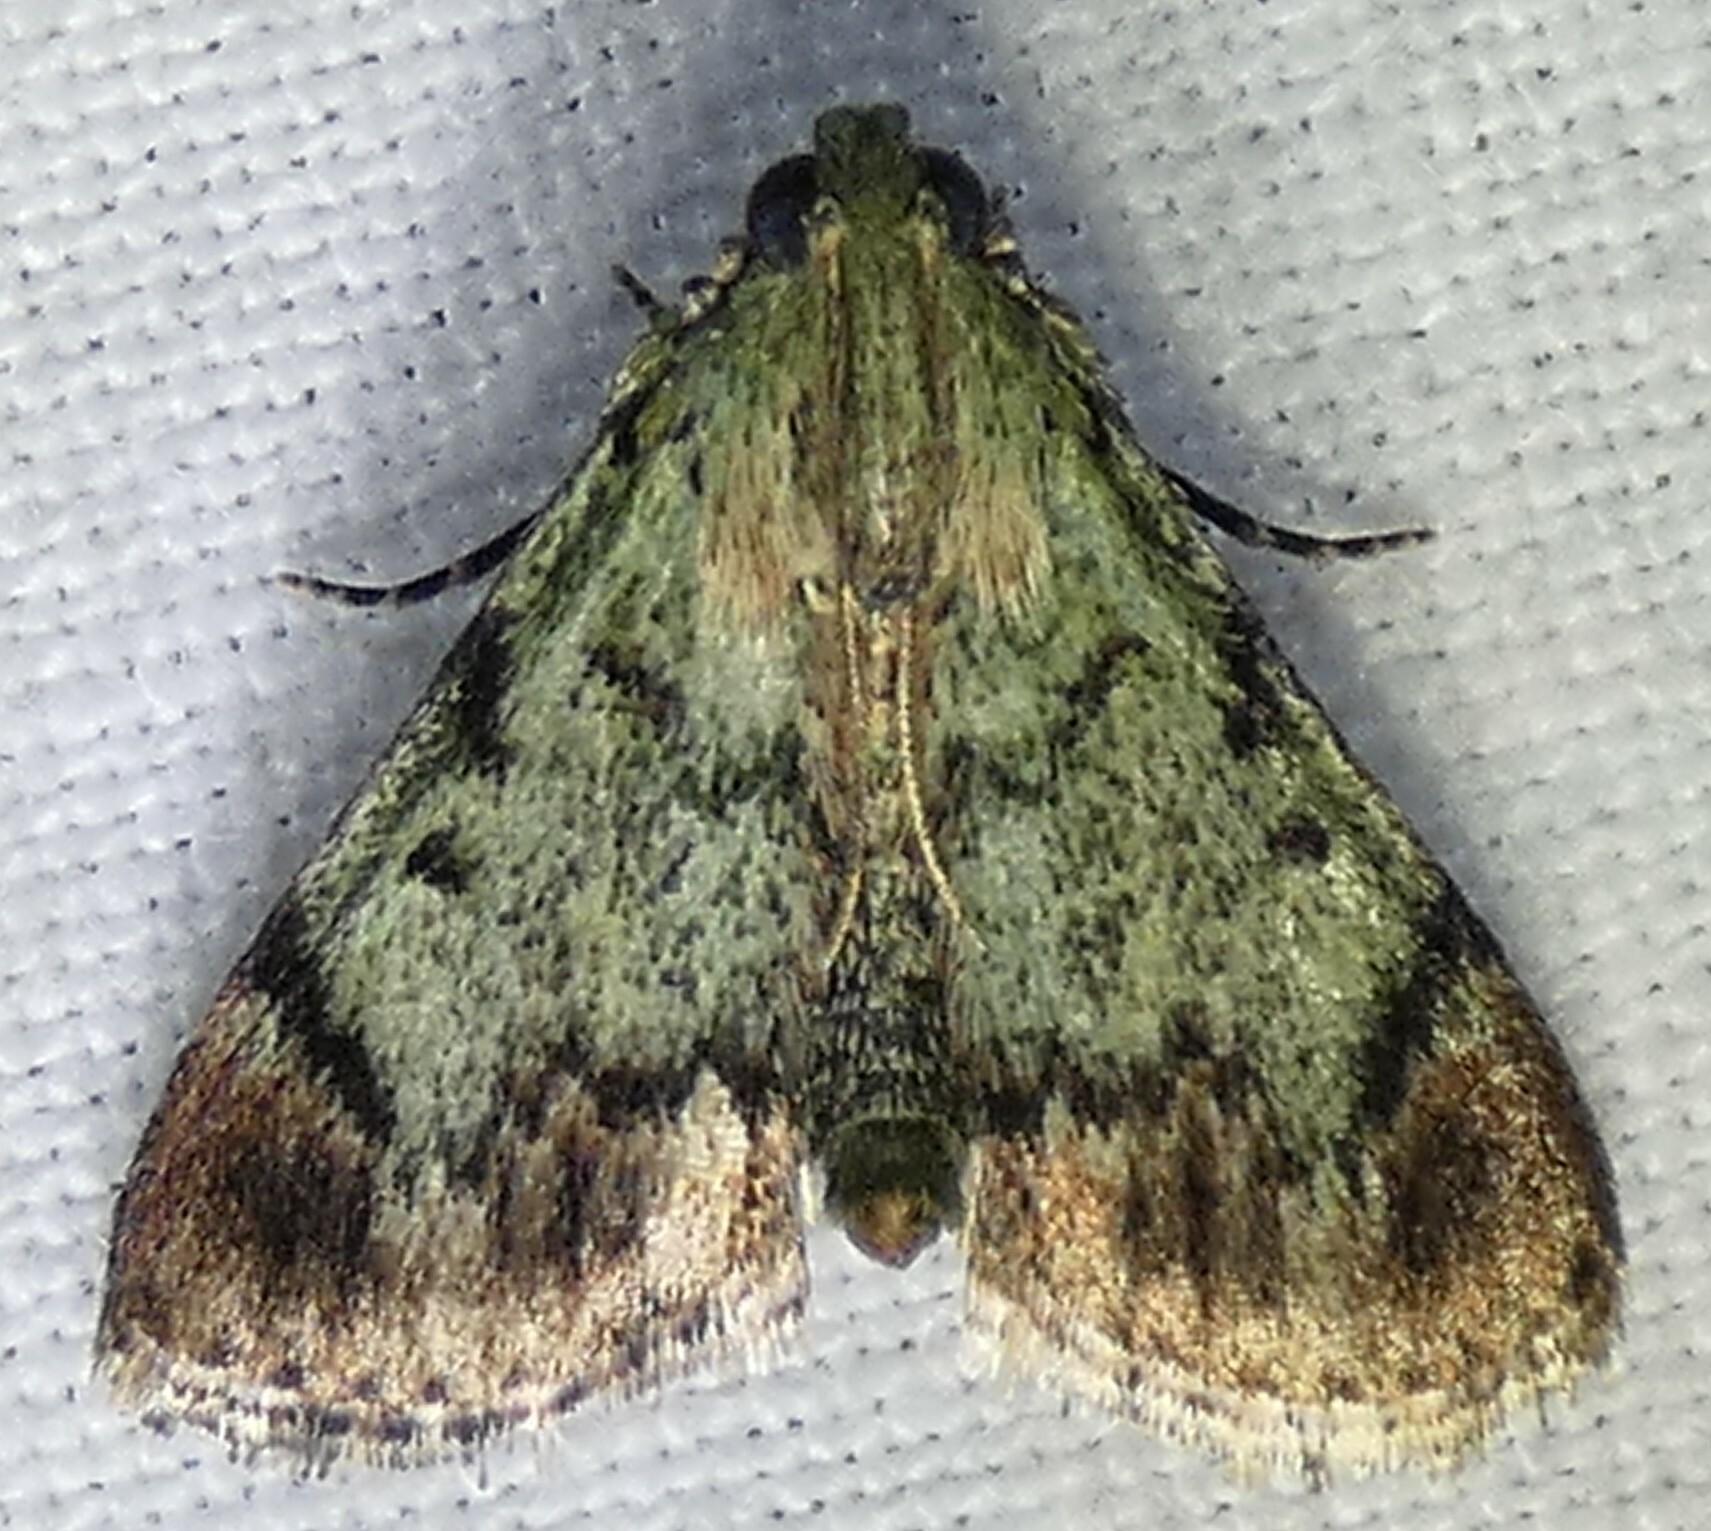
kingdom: Animalia
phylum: Arthropoda
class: Insecta
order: Lepidoptera
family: Pyralidae
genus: Epipaschia
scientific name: Epipaschia superatalis
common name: Dimorphic macalla moth
